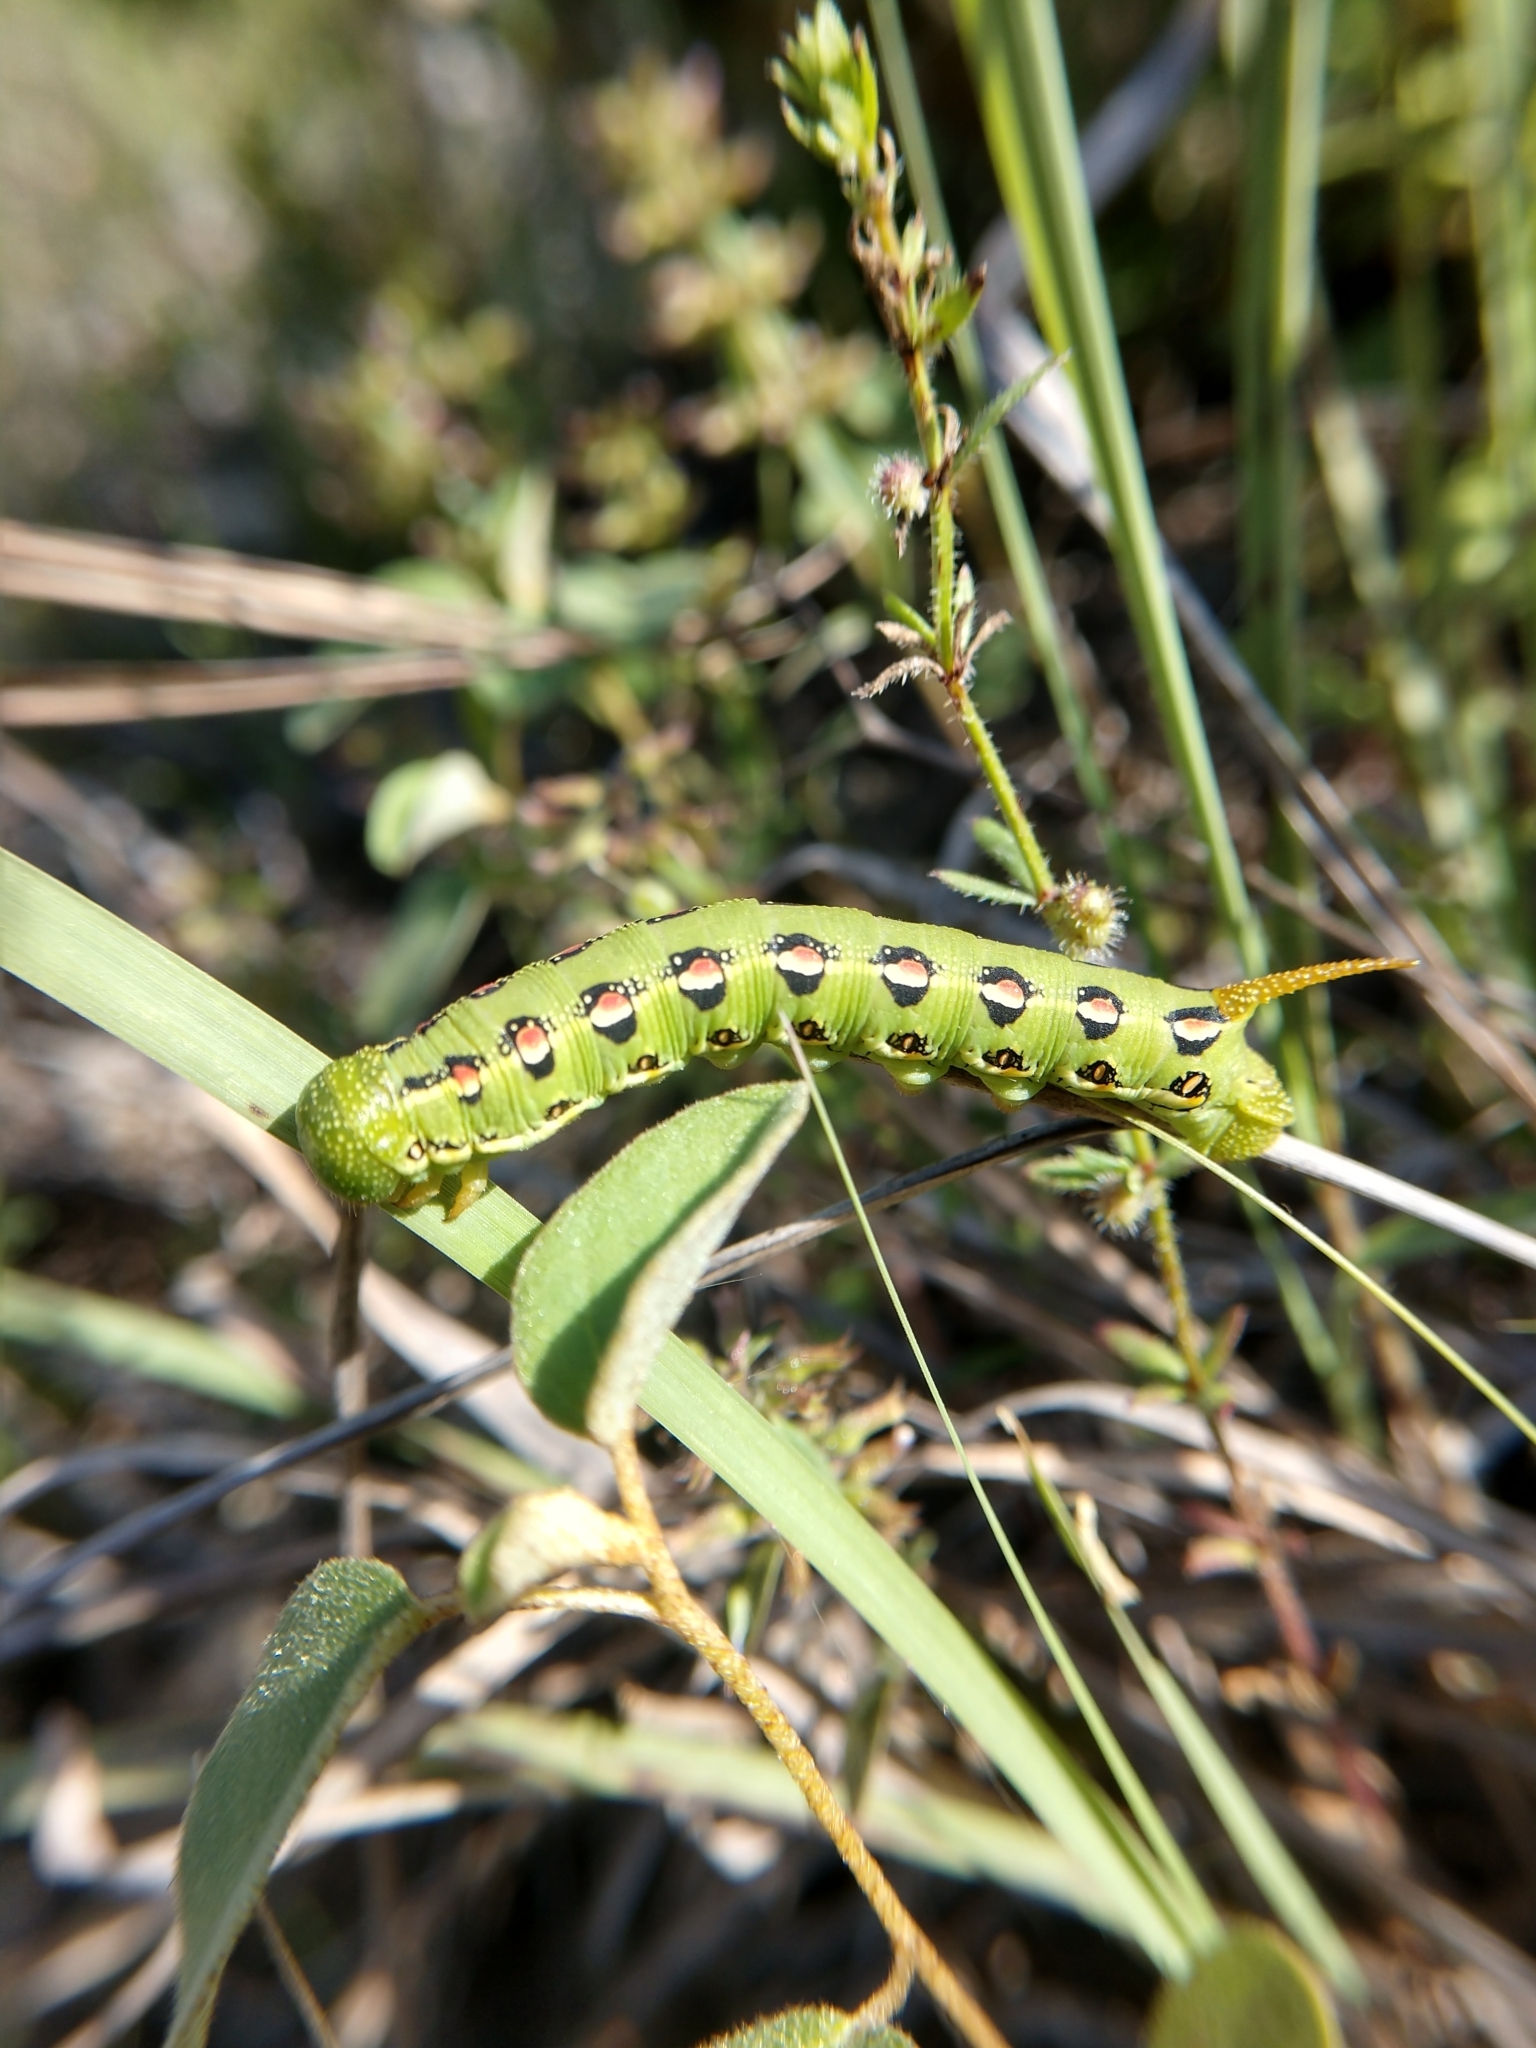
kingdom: Animalia
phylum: Arthropoda
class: Insecta
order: Lepidoptera
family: Sphingidae
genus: Hyles
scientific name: Hyles lineata
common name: White-lined sphinx
